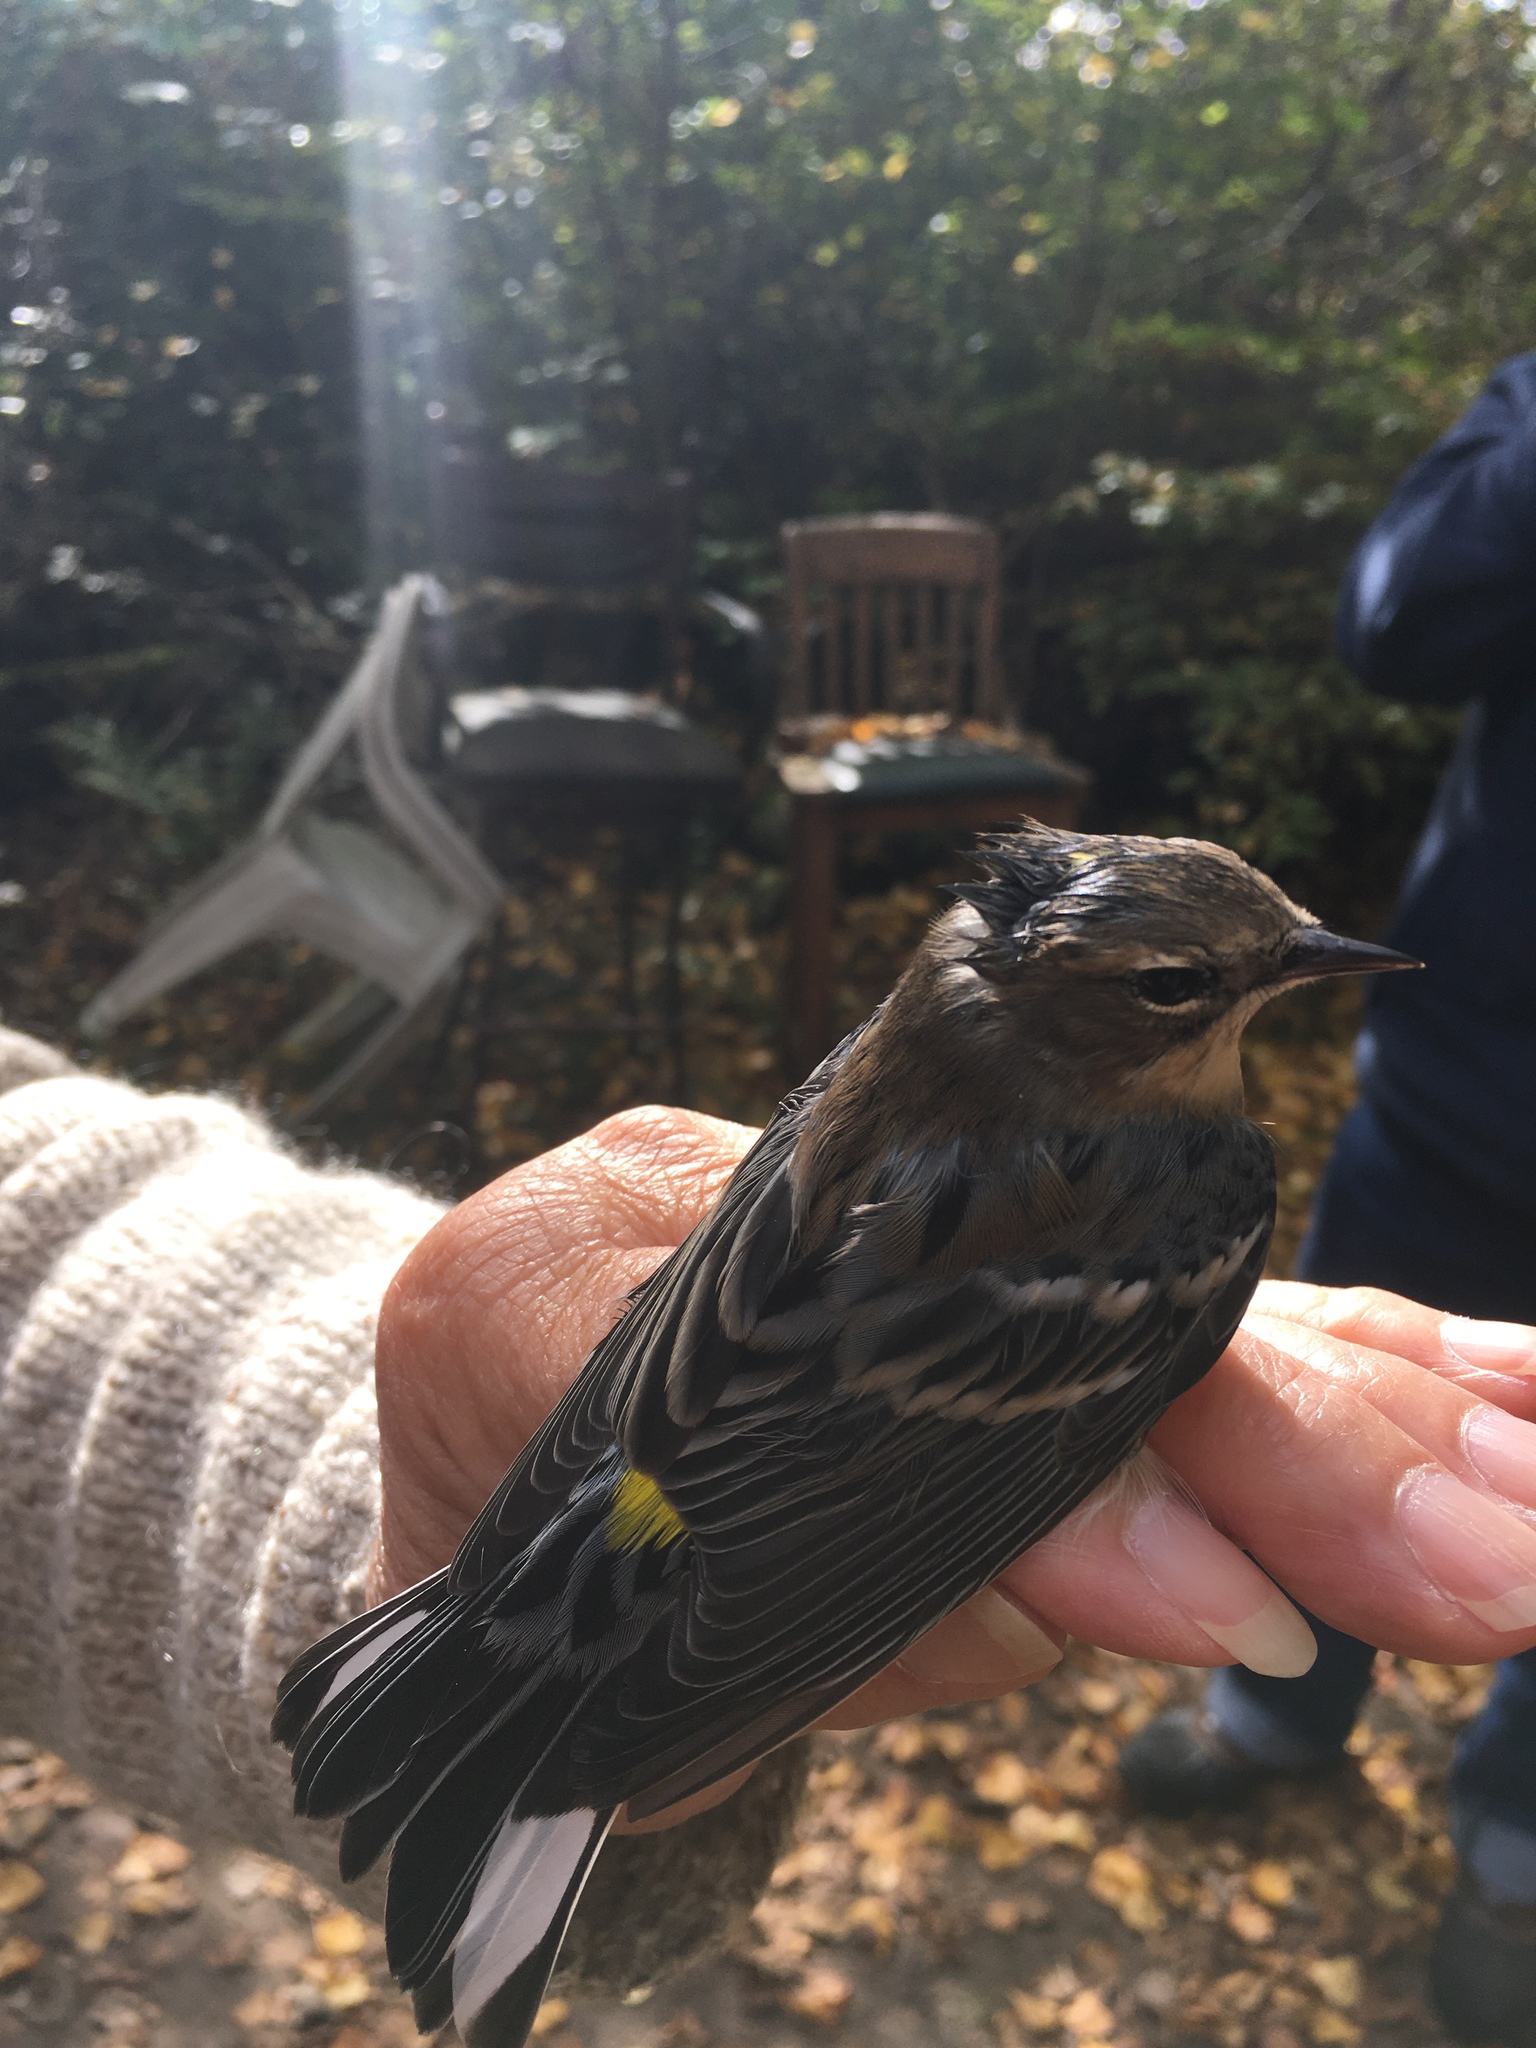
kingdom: Animalia
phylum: Chordata
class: Aves
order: Passeriformes
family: Parulidae
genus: Setophaga
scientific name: Setophaga coronata
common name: Myrtle warbler
